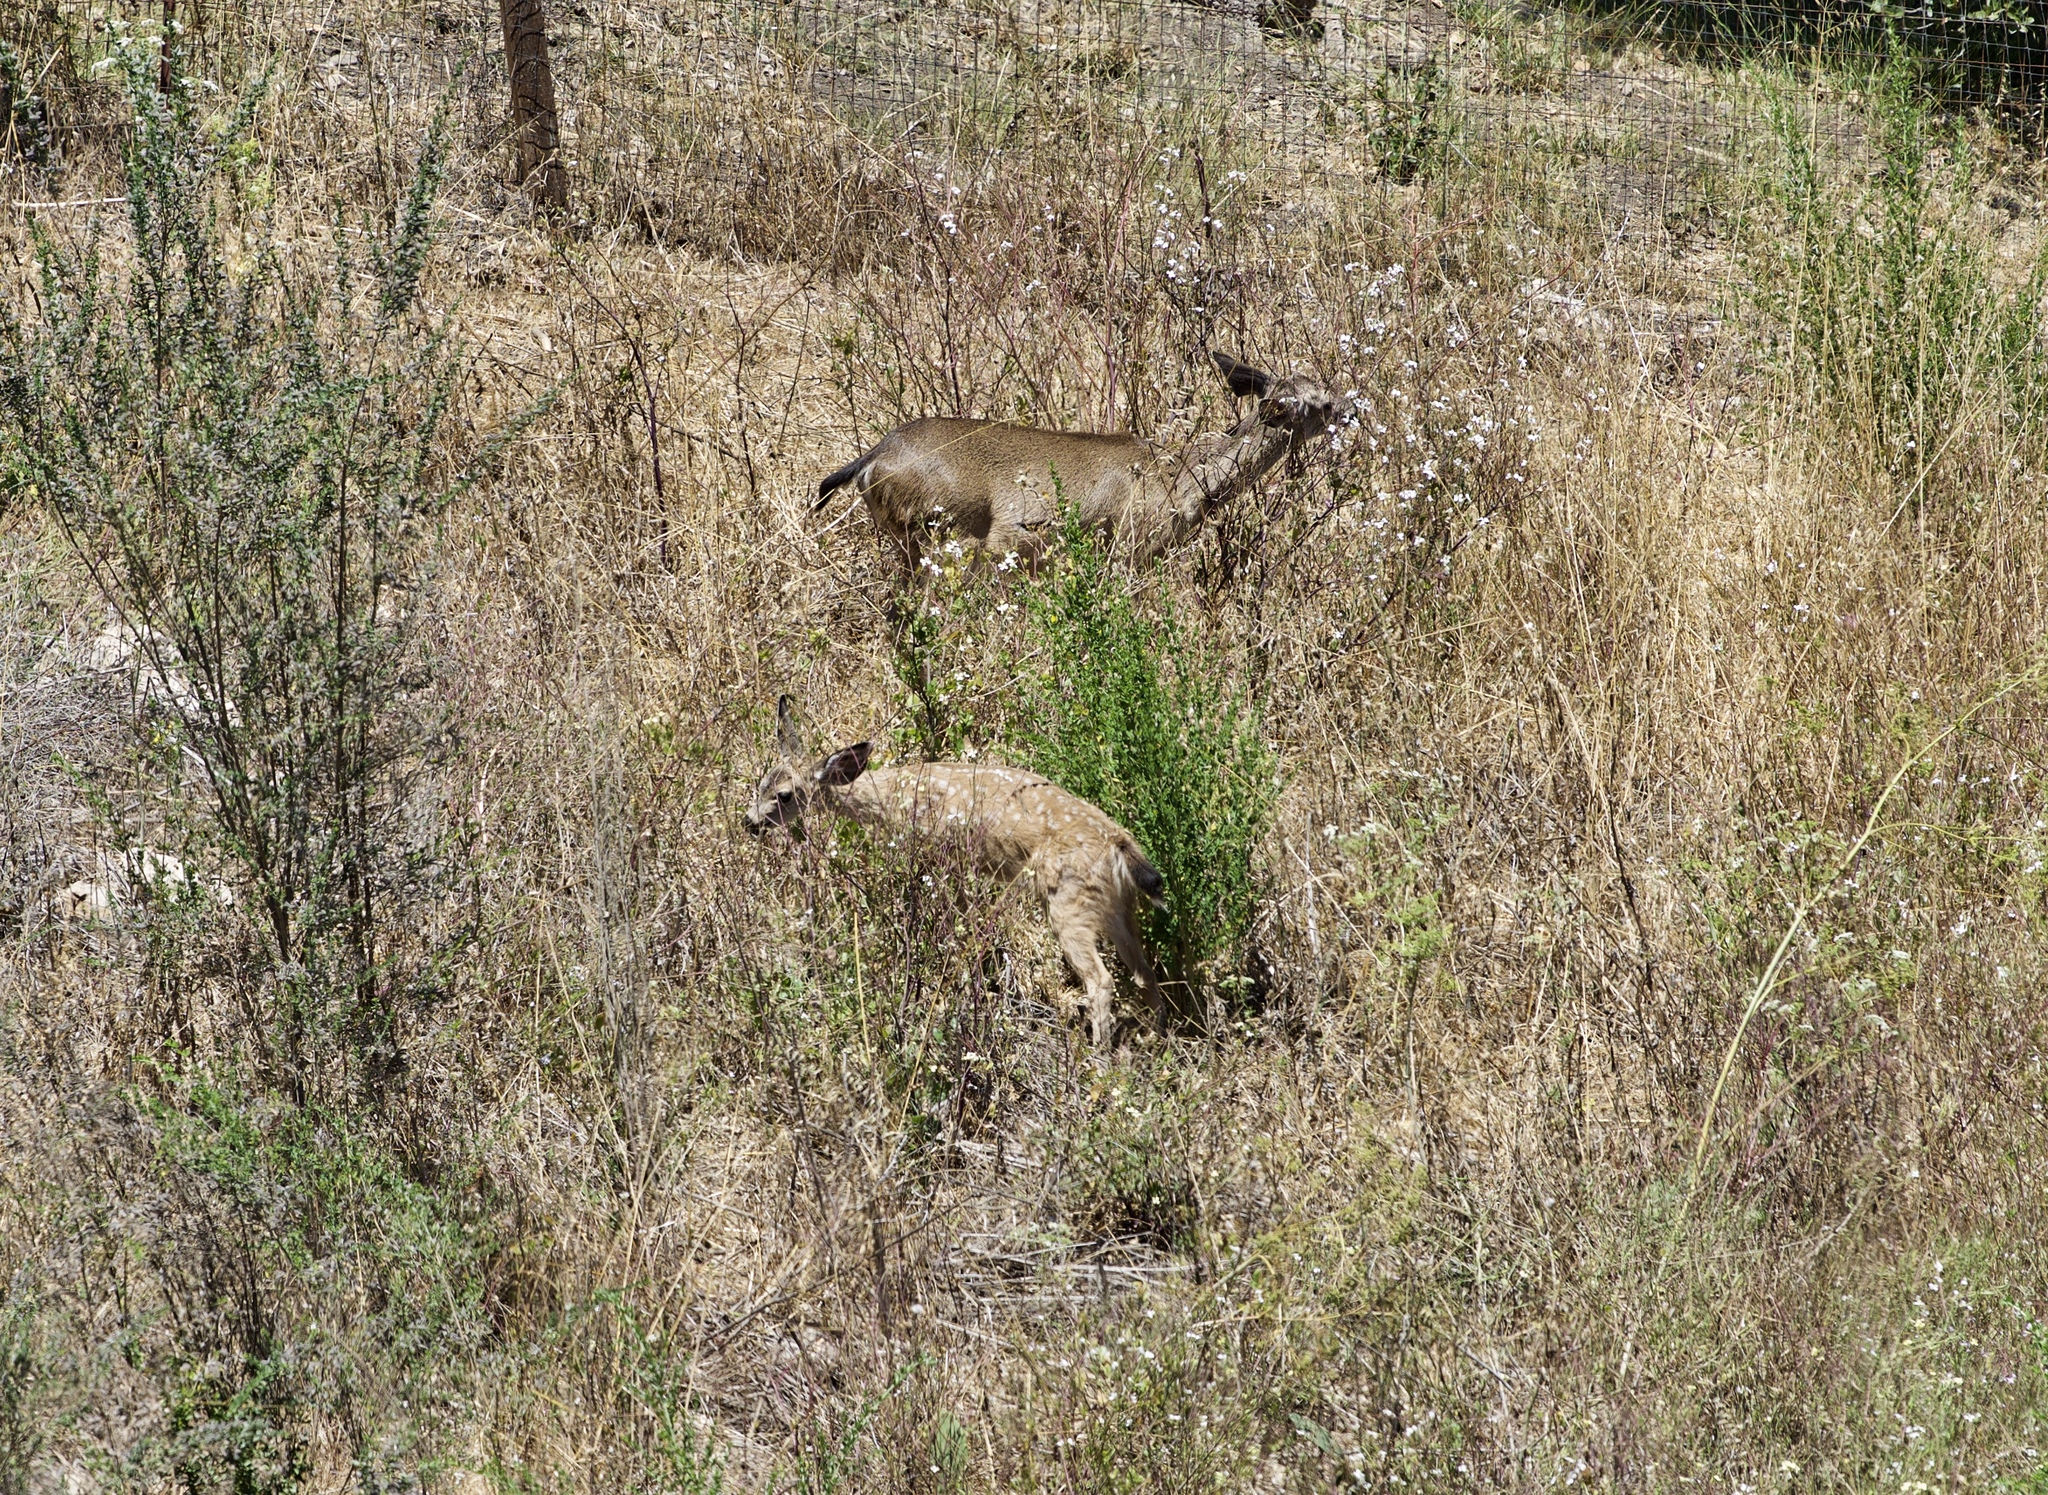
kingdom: Animalia
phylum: Chordata
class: Mammalia
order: Artiodactyla
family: Cervidae
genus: Odocoileus
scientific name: Odocoileus hemionus
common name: Mule deer
